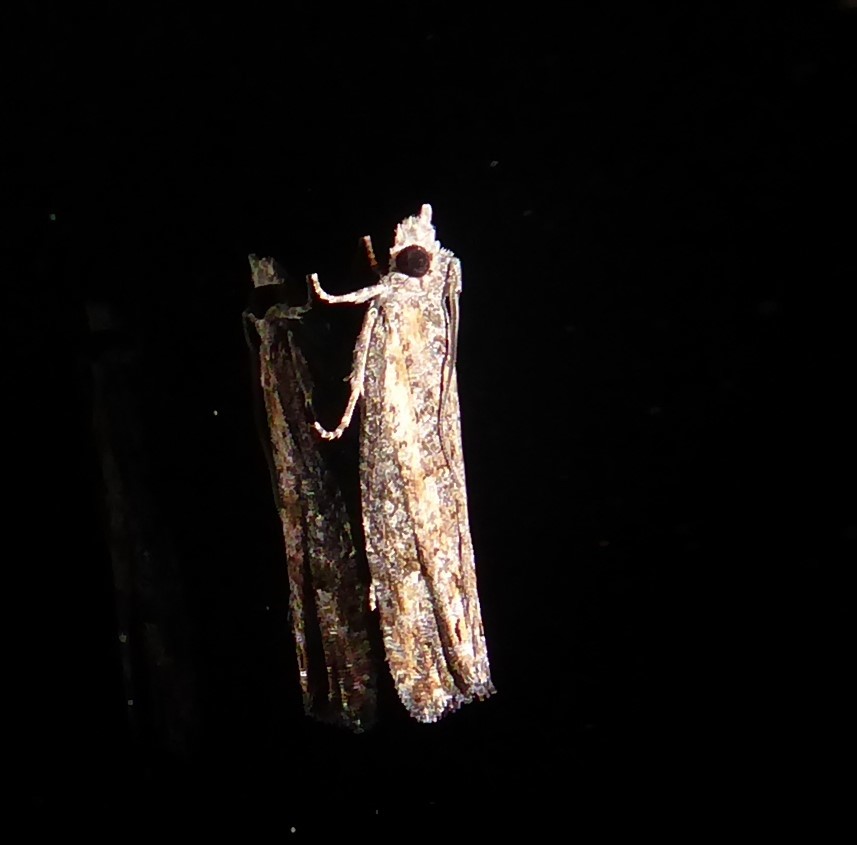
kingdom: Animalia
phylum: Arthropoda
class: Insecta
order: Lepidoptera
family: Tortricidae
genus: Strepsicrates
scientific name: Strepsicrates ejectana
